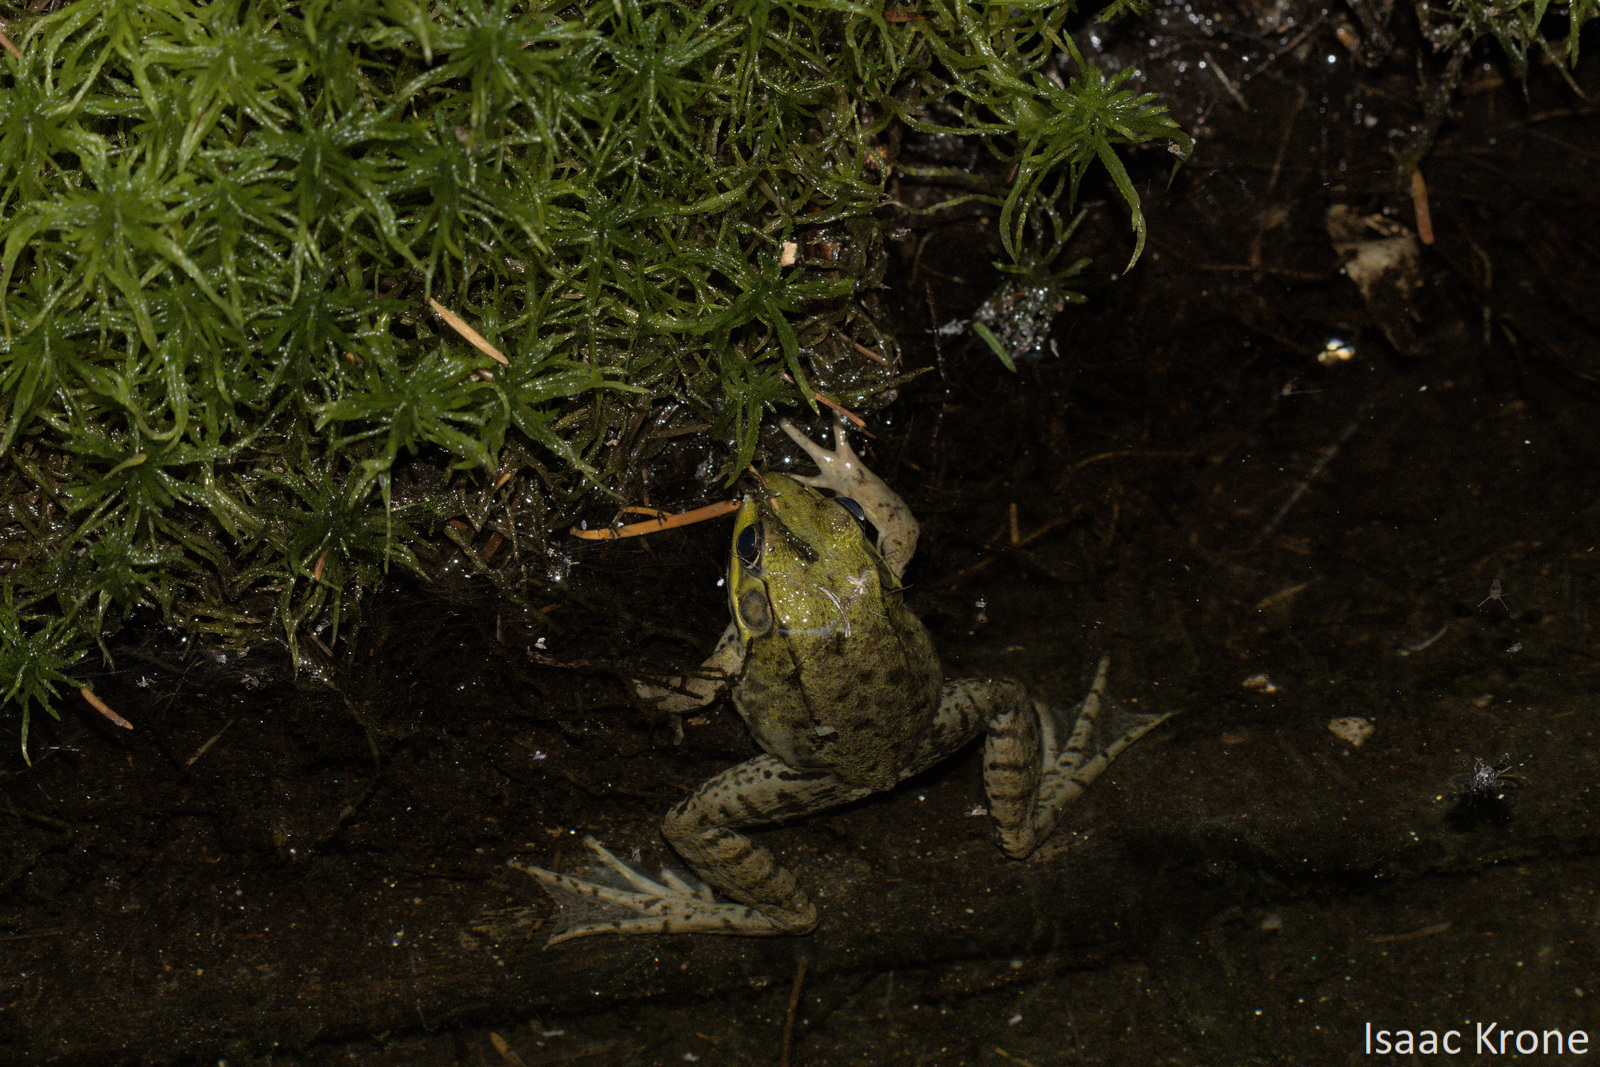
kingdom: Animalia
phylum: Chordata
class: Amphibia
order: Anura
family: Ranidae
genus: Lithobates
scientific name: Lithobates clamitans
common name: Green frog
